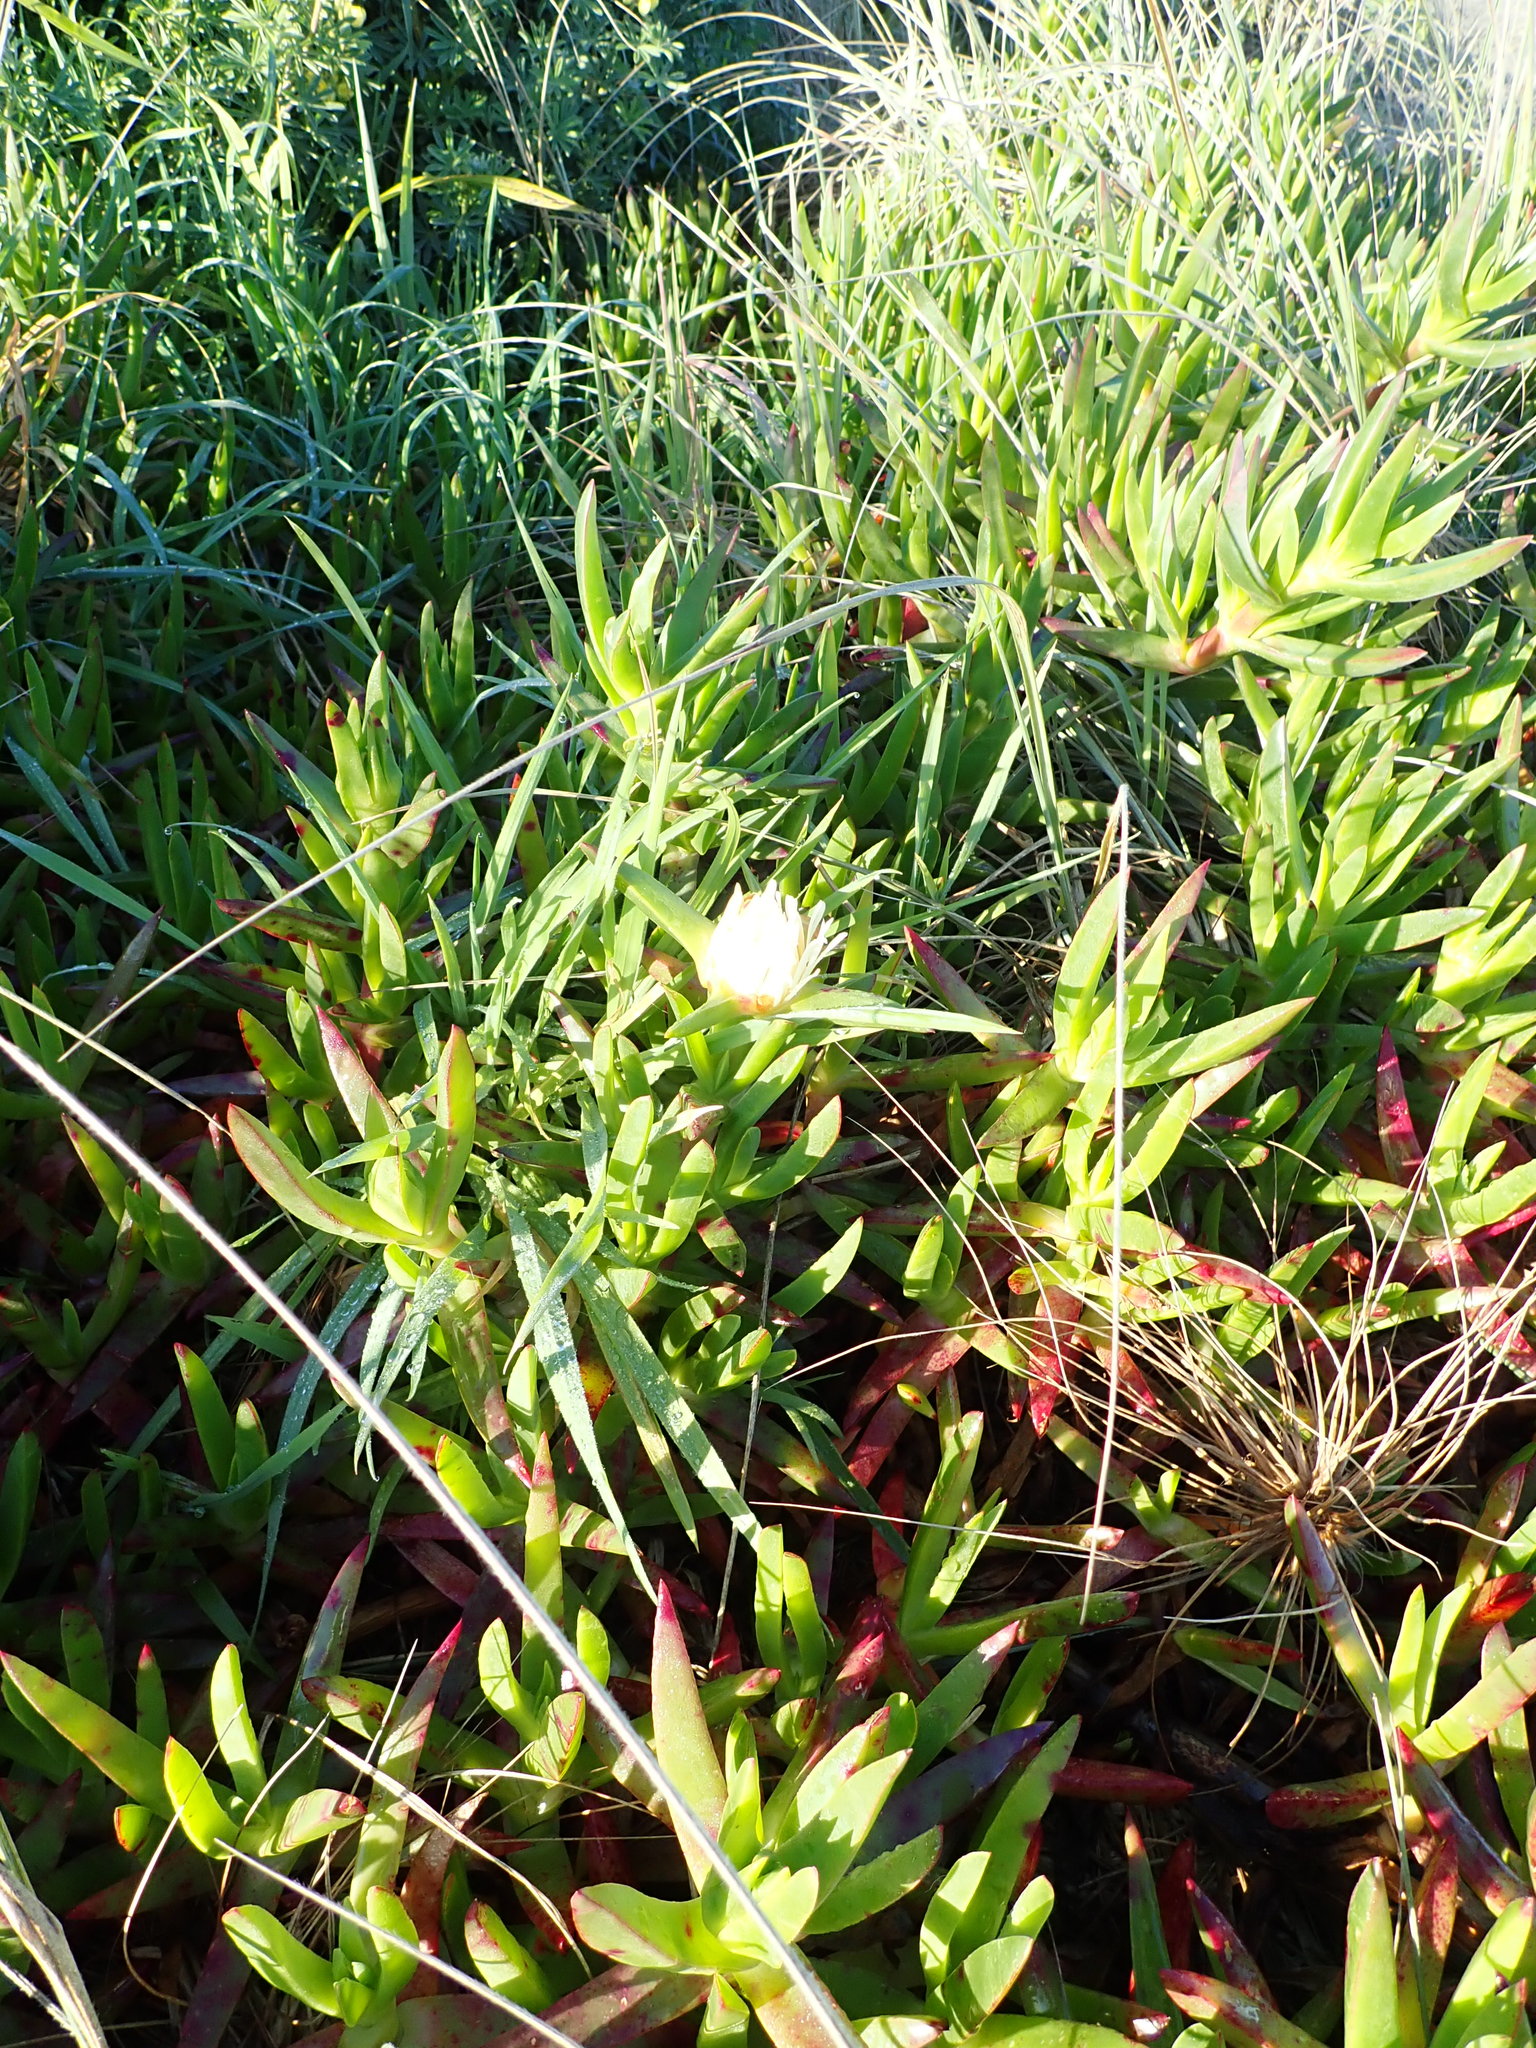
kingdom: Plantae
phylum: Tracheophyta
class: Magnoliopsida
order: Caryophyllales
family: Aizoaceae
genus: Carpobrotus
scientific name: Carpobrotus edulis
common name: Hottentot-fig
